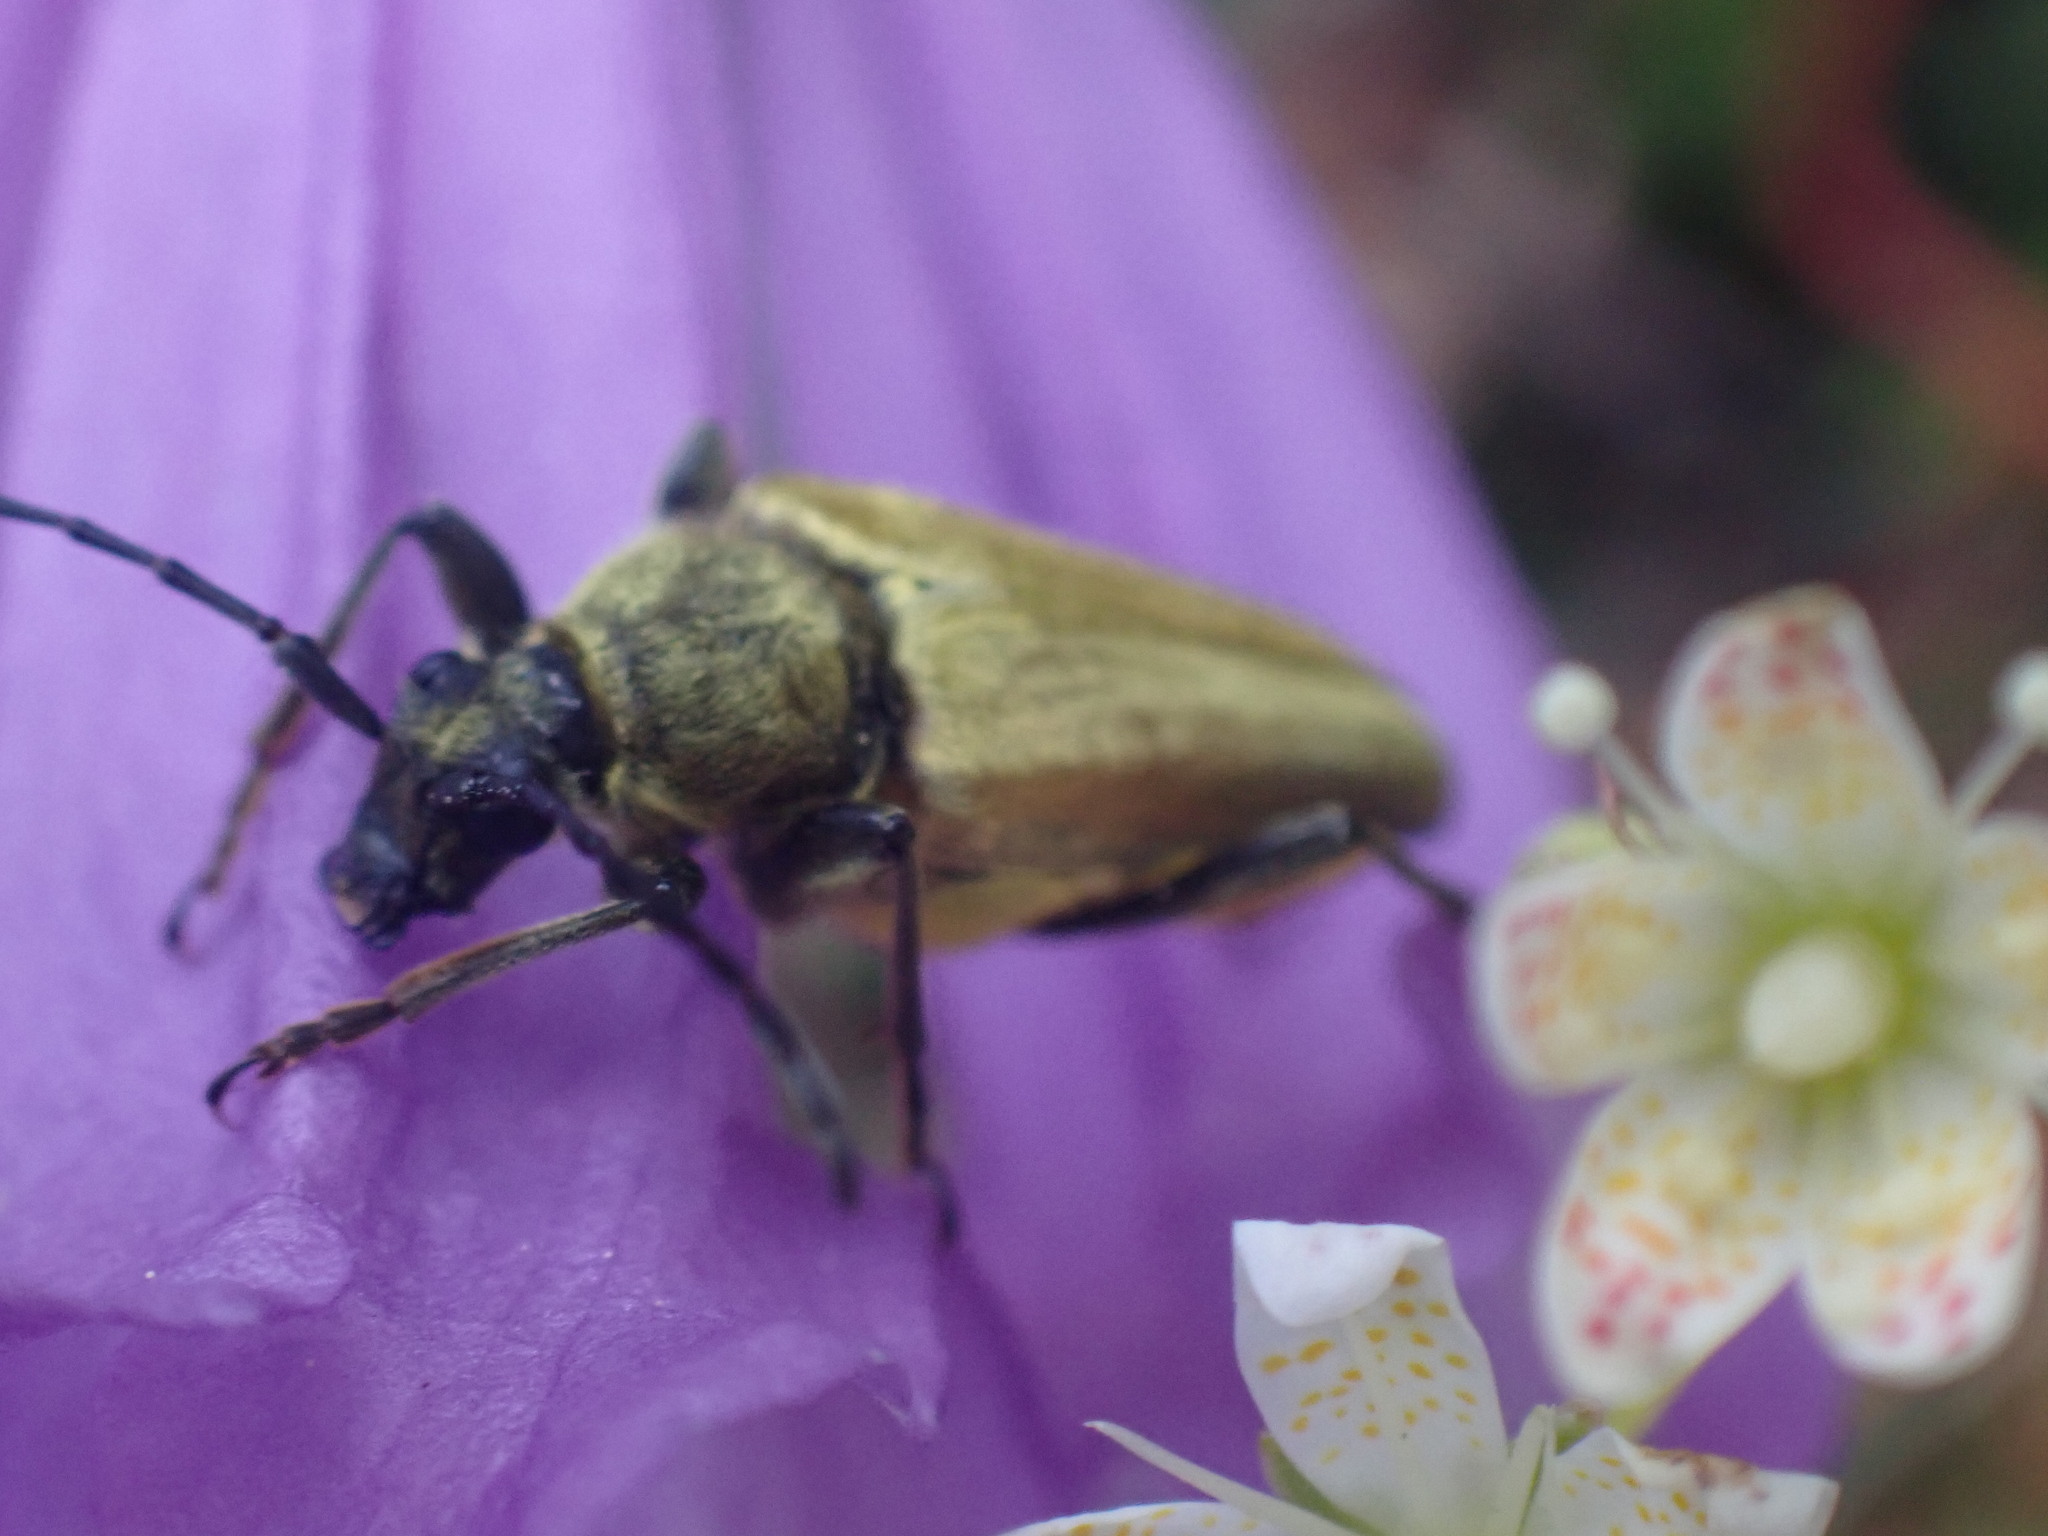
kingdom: Animalia
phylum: Arthropoda
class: Insecta
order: Coleoptera
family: Cerambycidae
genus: Cosmosalia
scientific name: Cosmosalia chrysocoma
